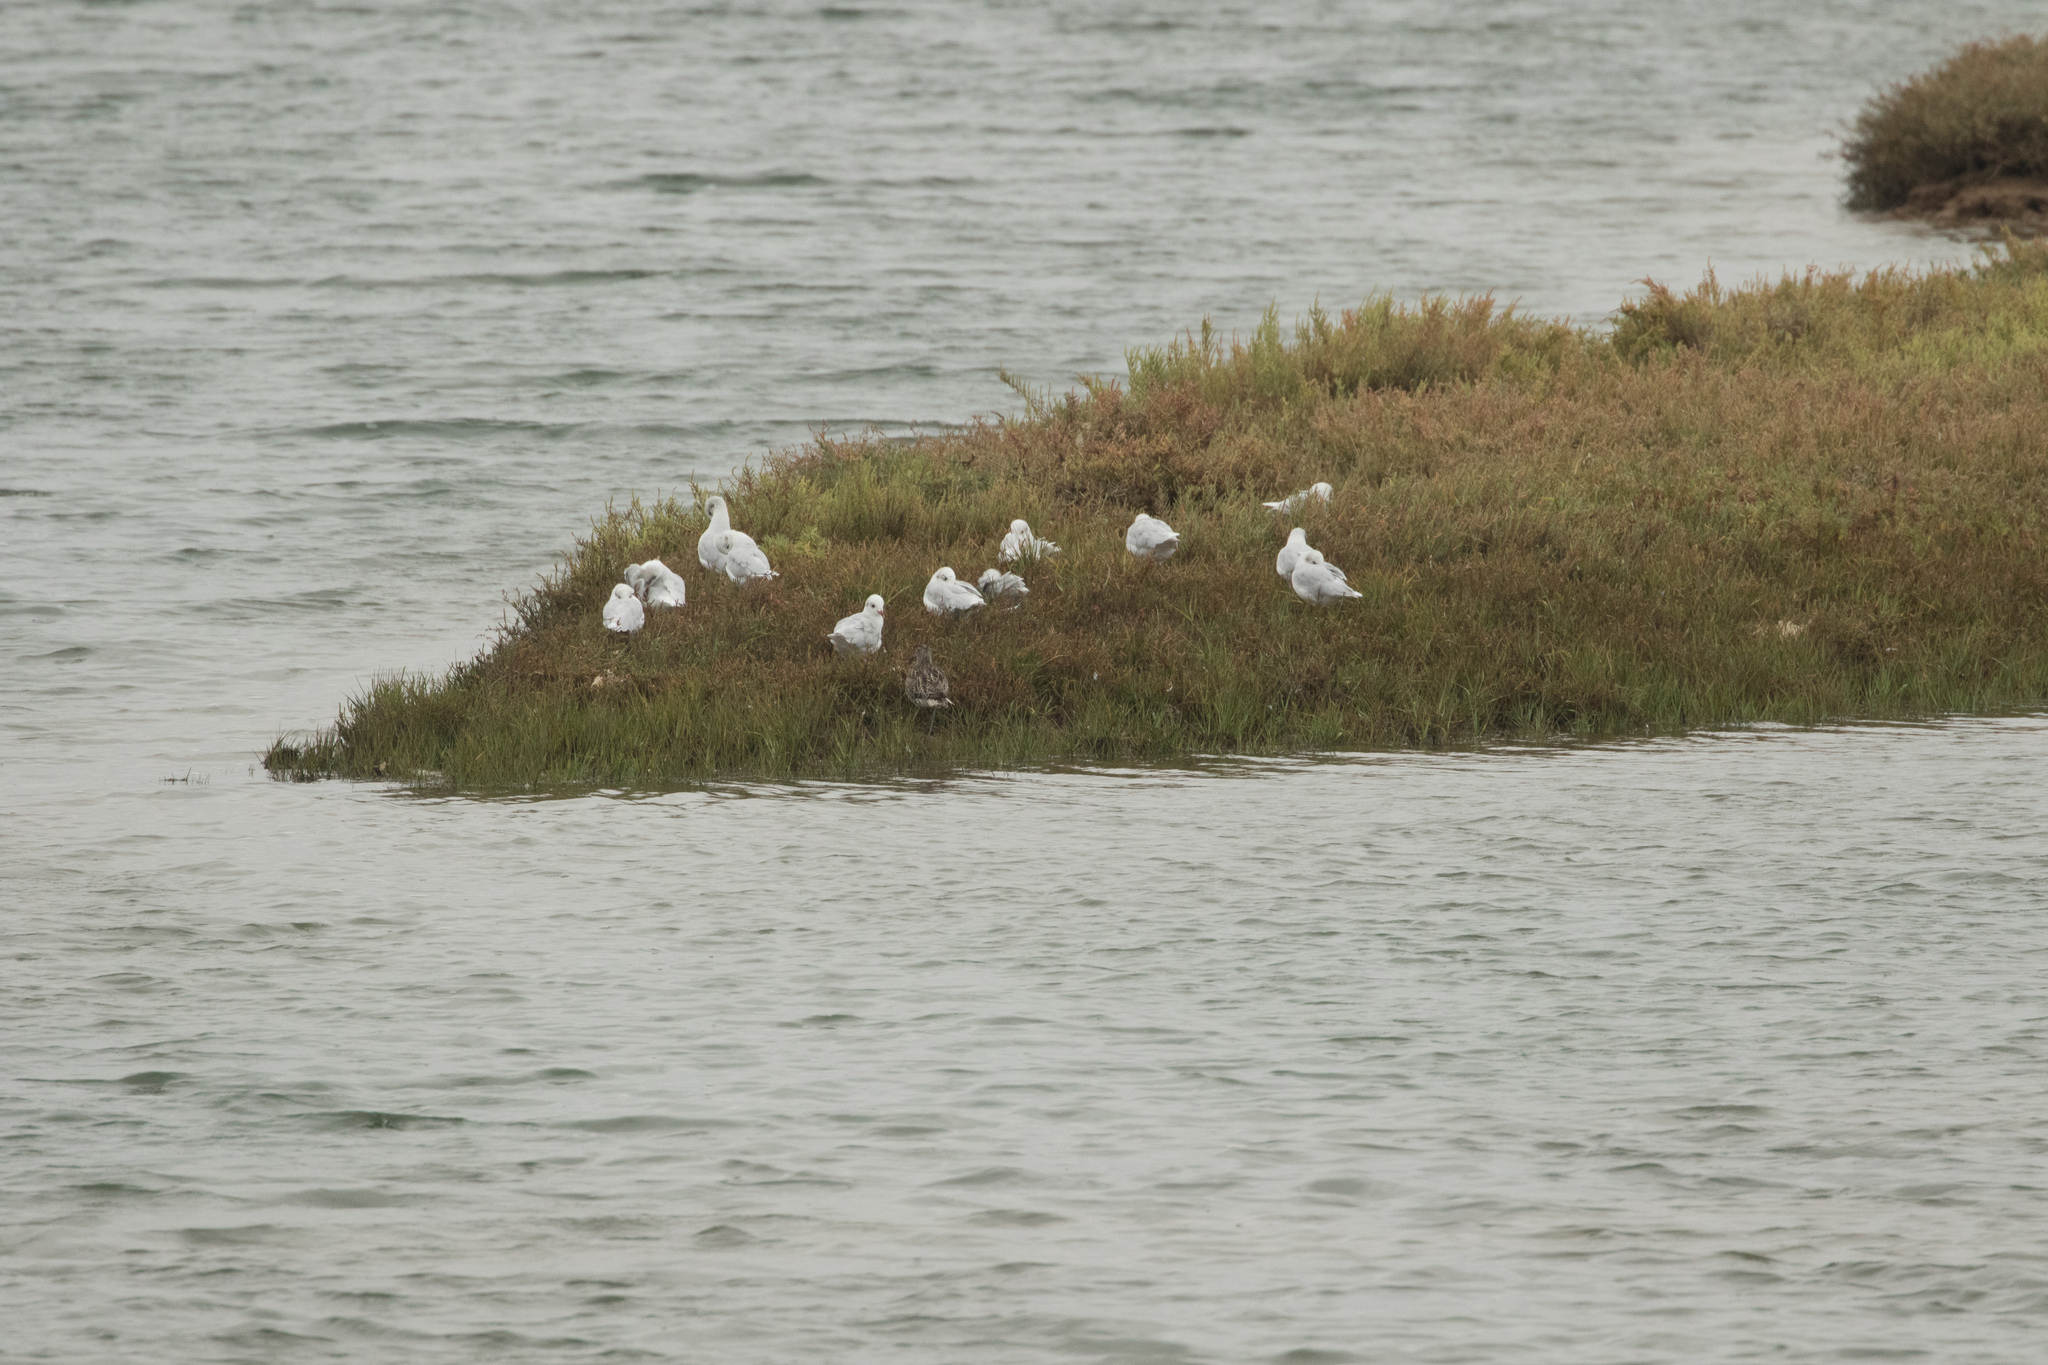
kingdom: Animalia
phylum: Chordata
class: Aves
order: Charadriiformes
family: Scolopacidae
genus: Numenius
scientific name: Numenius phaeopus
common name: Whimbrel
